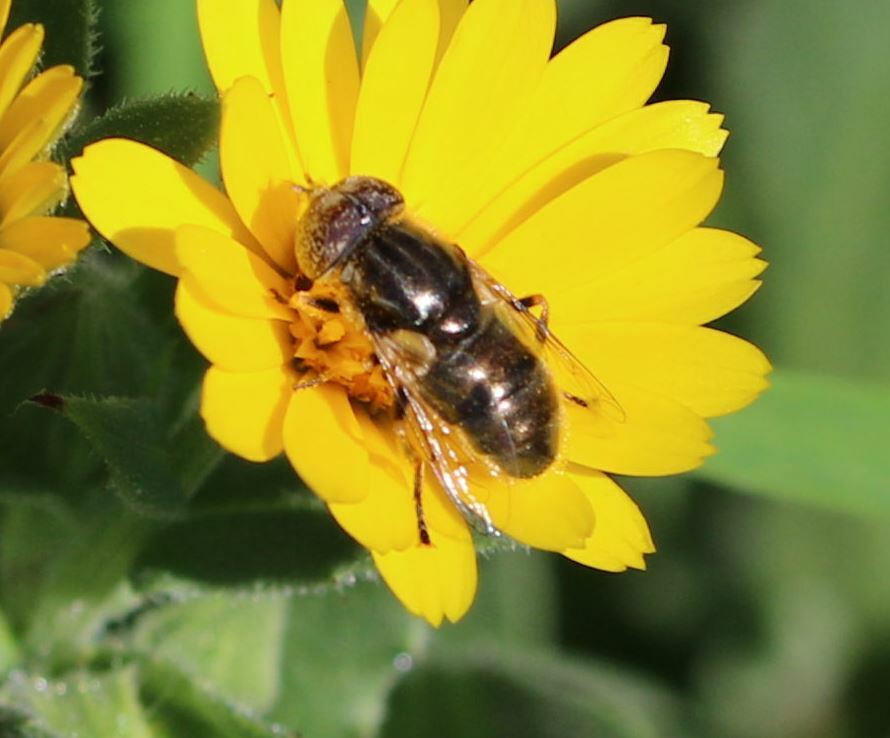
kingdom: Animalia
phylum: Arthropoda
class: Insecta
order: Diptera
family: Syrphidae
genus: Eristalinus
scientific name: Eristalinus aeneus
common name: Syrphid fly
